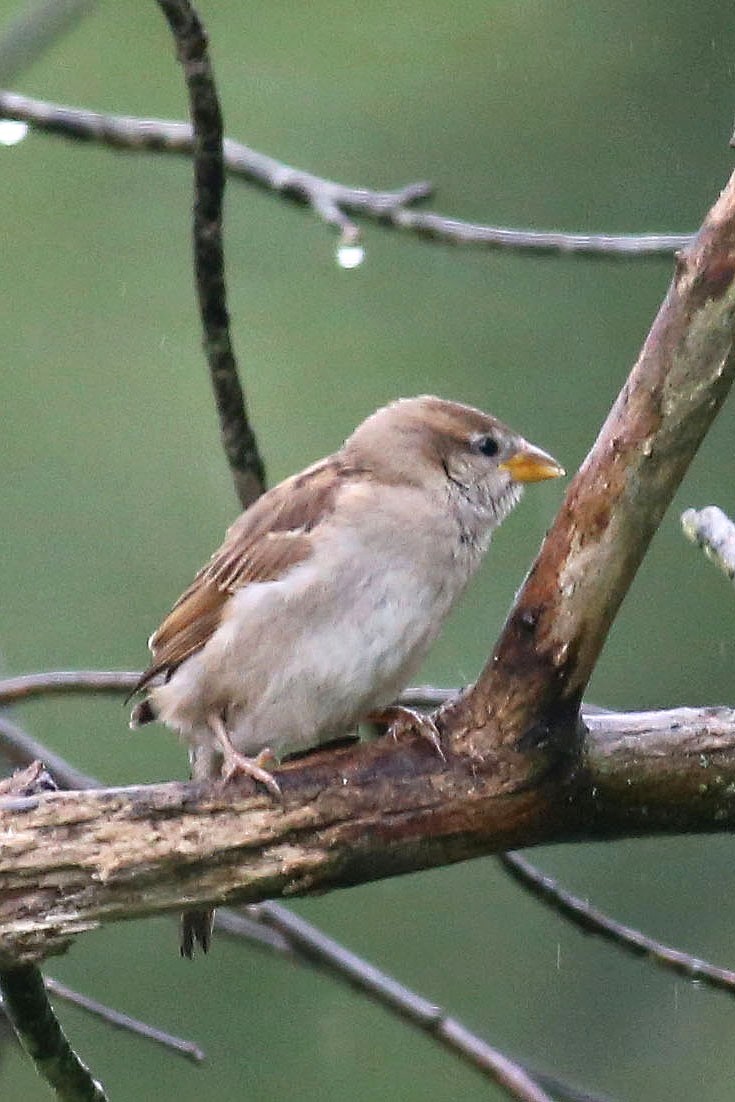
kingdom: Animalia
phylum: Chordata
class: Aves
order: Passeriformes
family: Passeridae
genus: Passer
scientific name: Passer domesticus
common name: House sparrow
